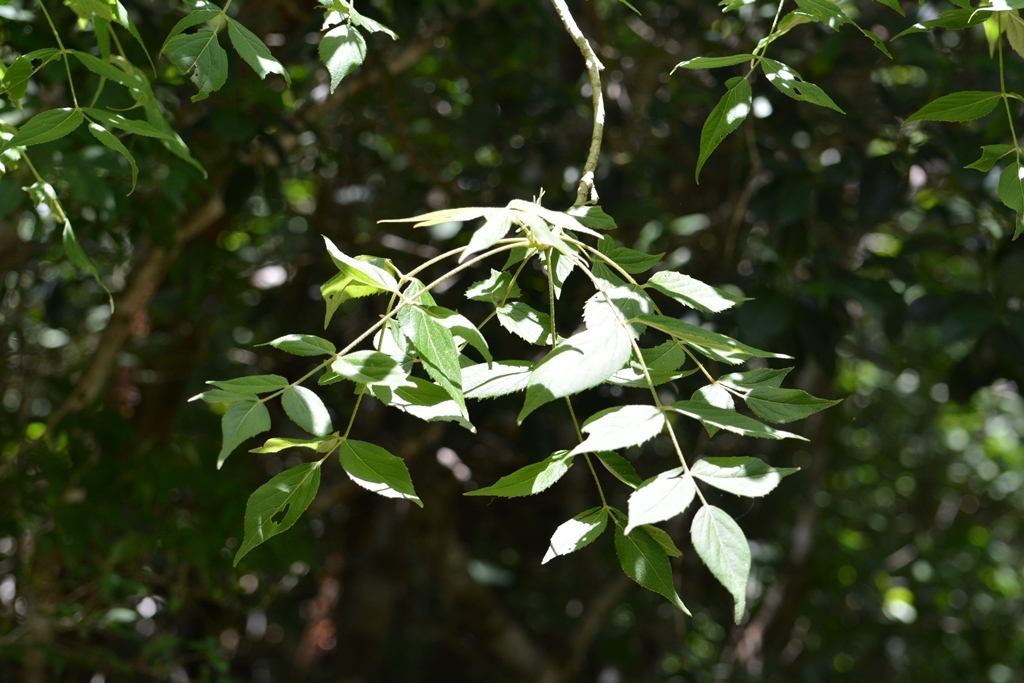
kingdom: Plantae
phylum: Tracheophyta
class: Magnoliopsida
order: Apiales
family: Araliaceae
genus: Aralia
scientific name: Aralia humilis
